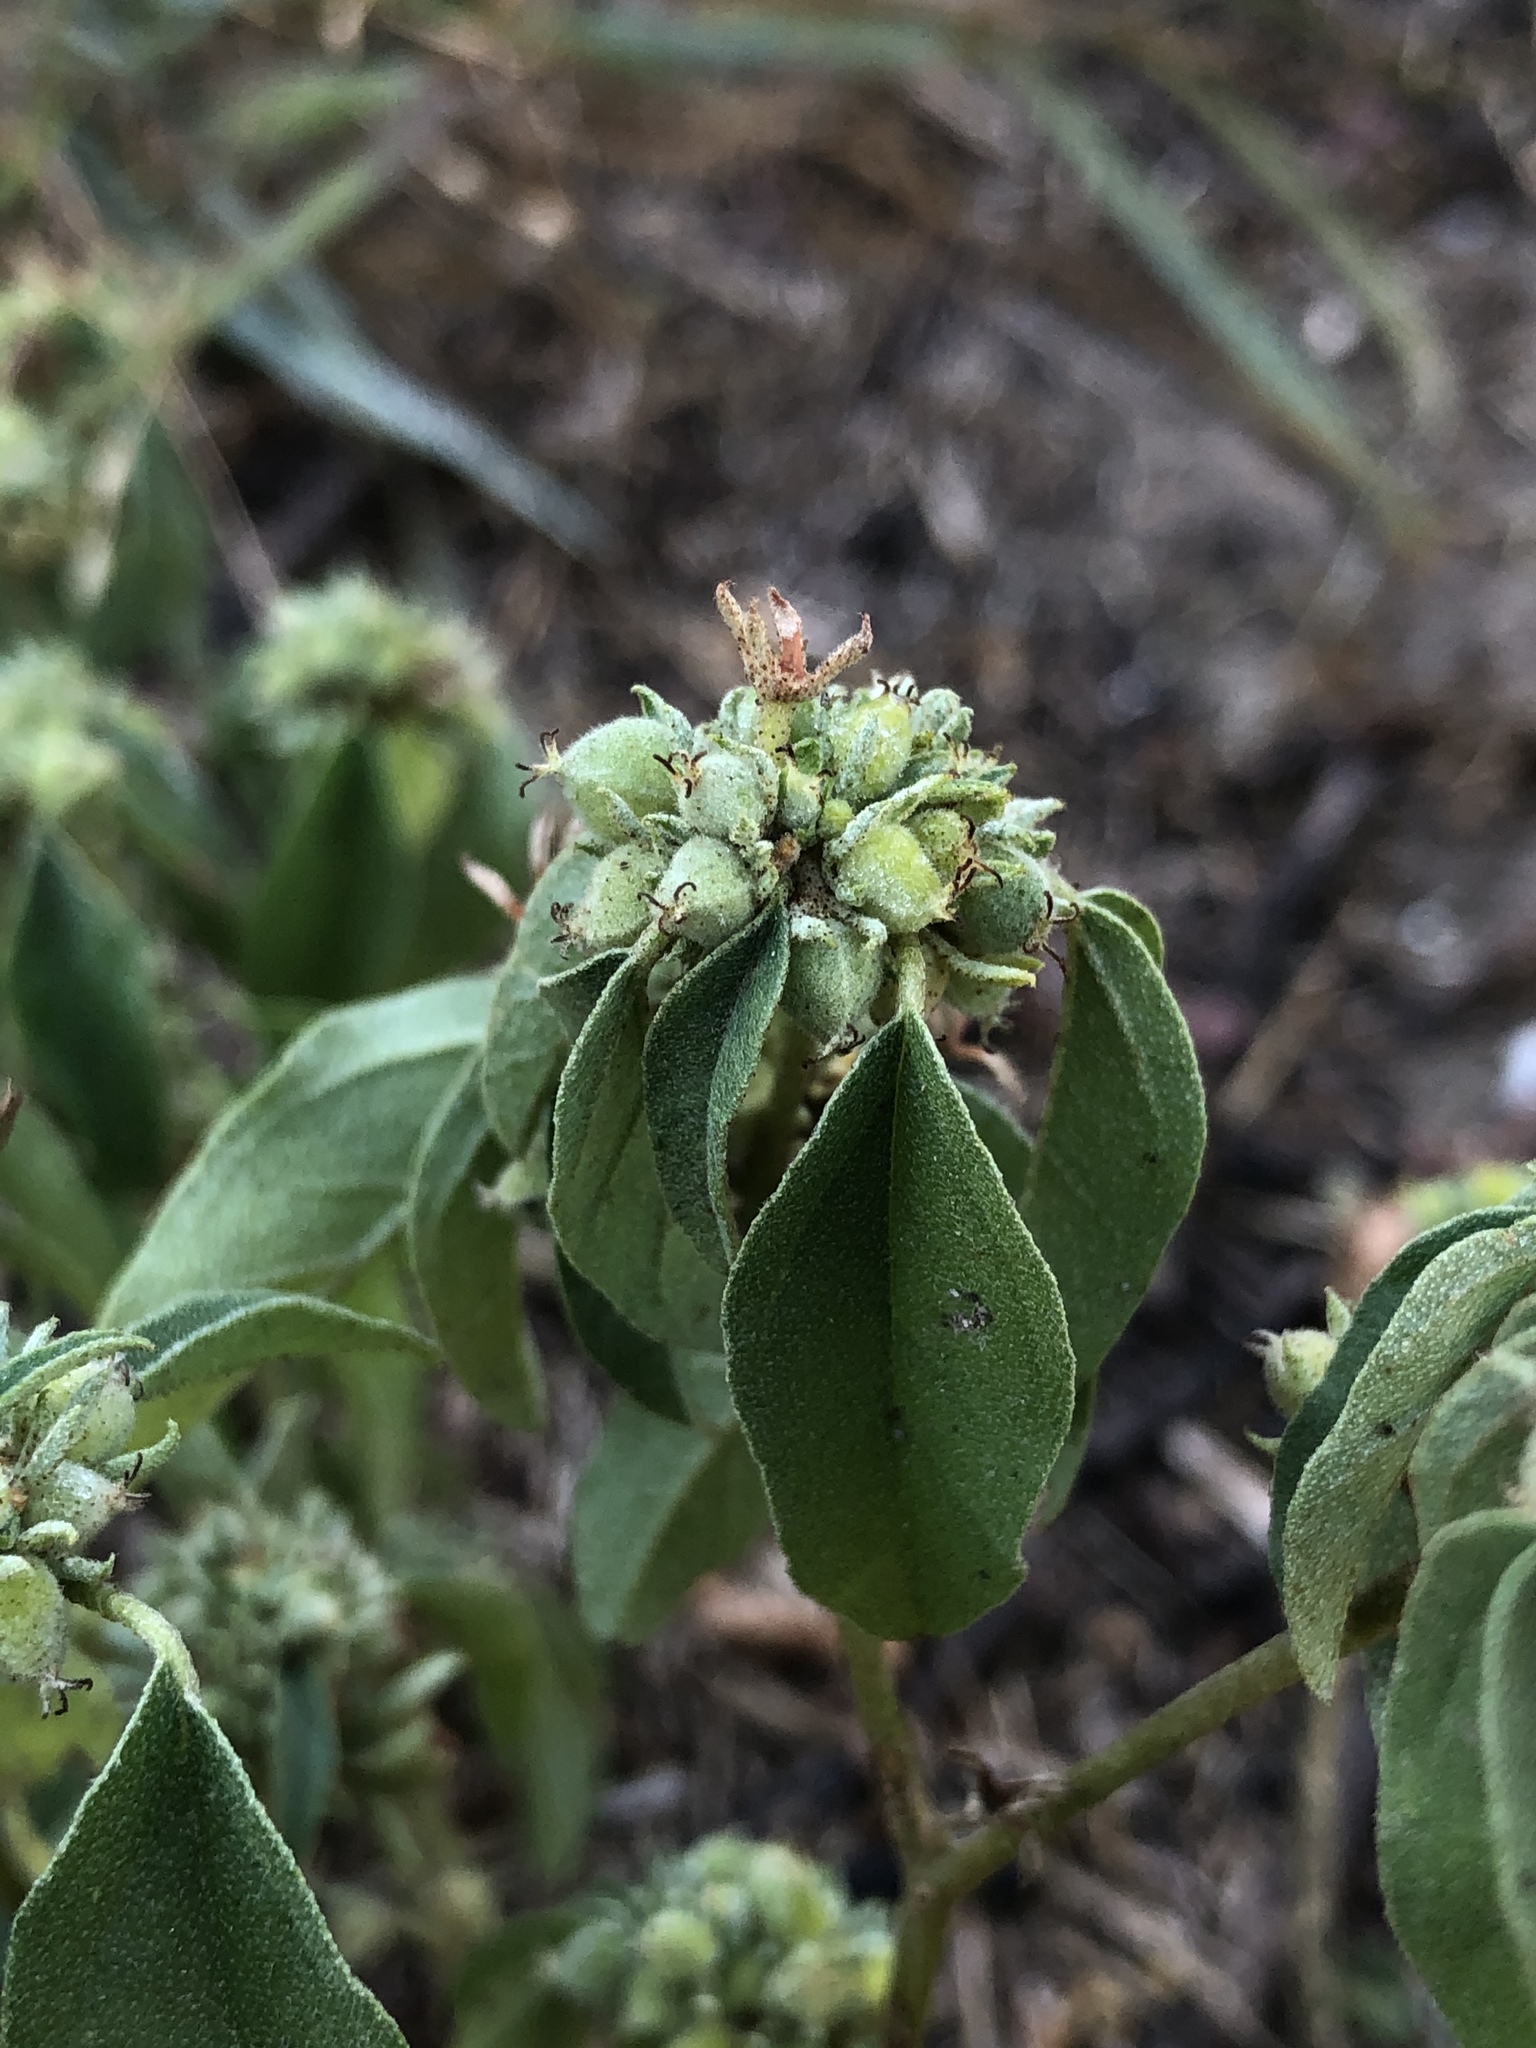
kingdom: Plantae
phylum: Tracheophyta
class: Magnoliopsida
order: Malpighiales
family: Euphorbiaceae
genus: Croton
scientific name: Croton monanthogynus
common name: One-seed croton
